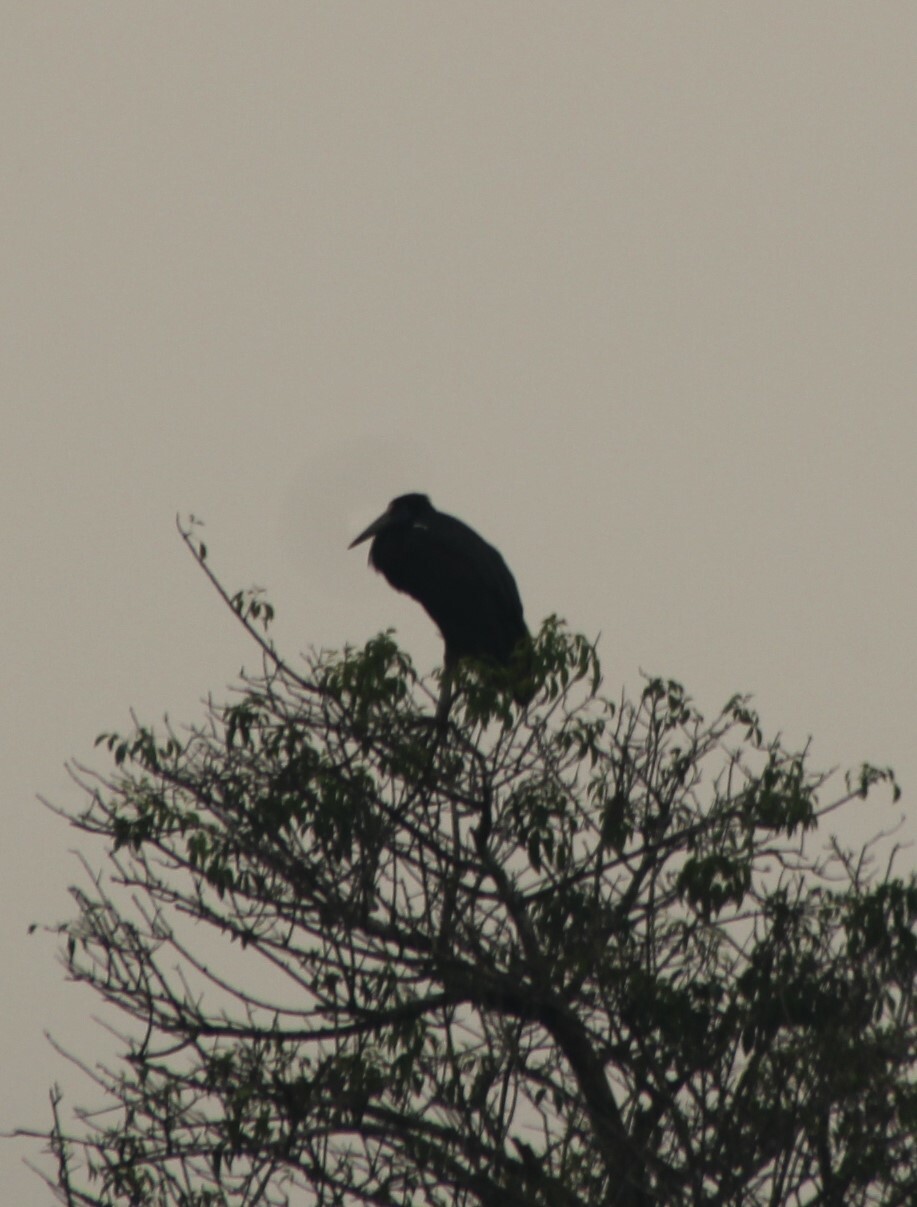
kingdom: Animalia
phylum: Chordata
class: Aves
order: Ciconiiformes
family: Ciconiidae
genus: Ciconia
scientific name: Ciconia abdimii
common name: Abdim's stork
